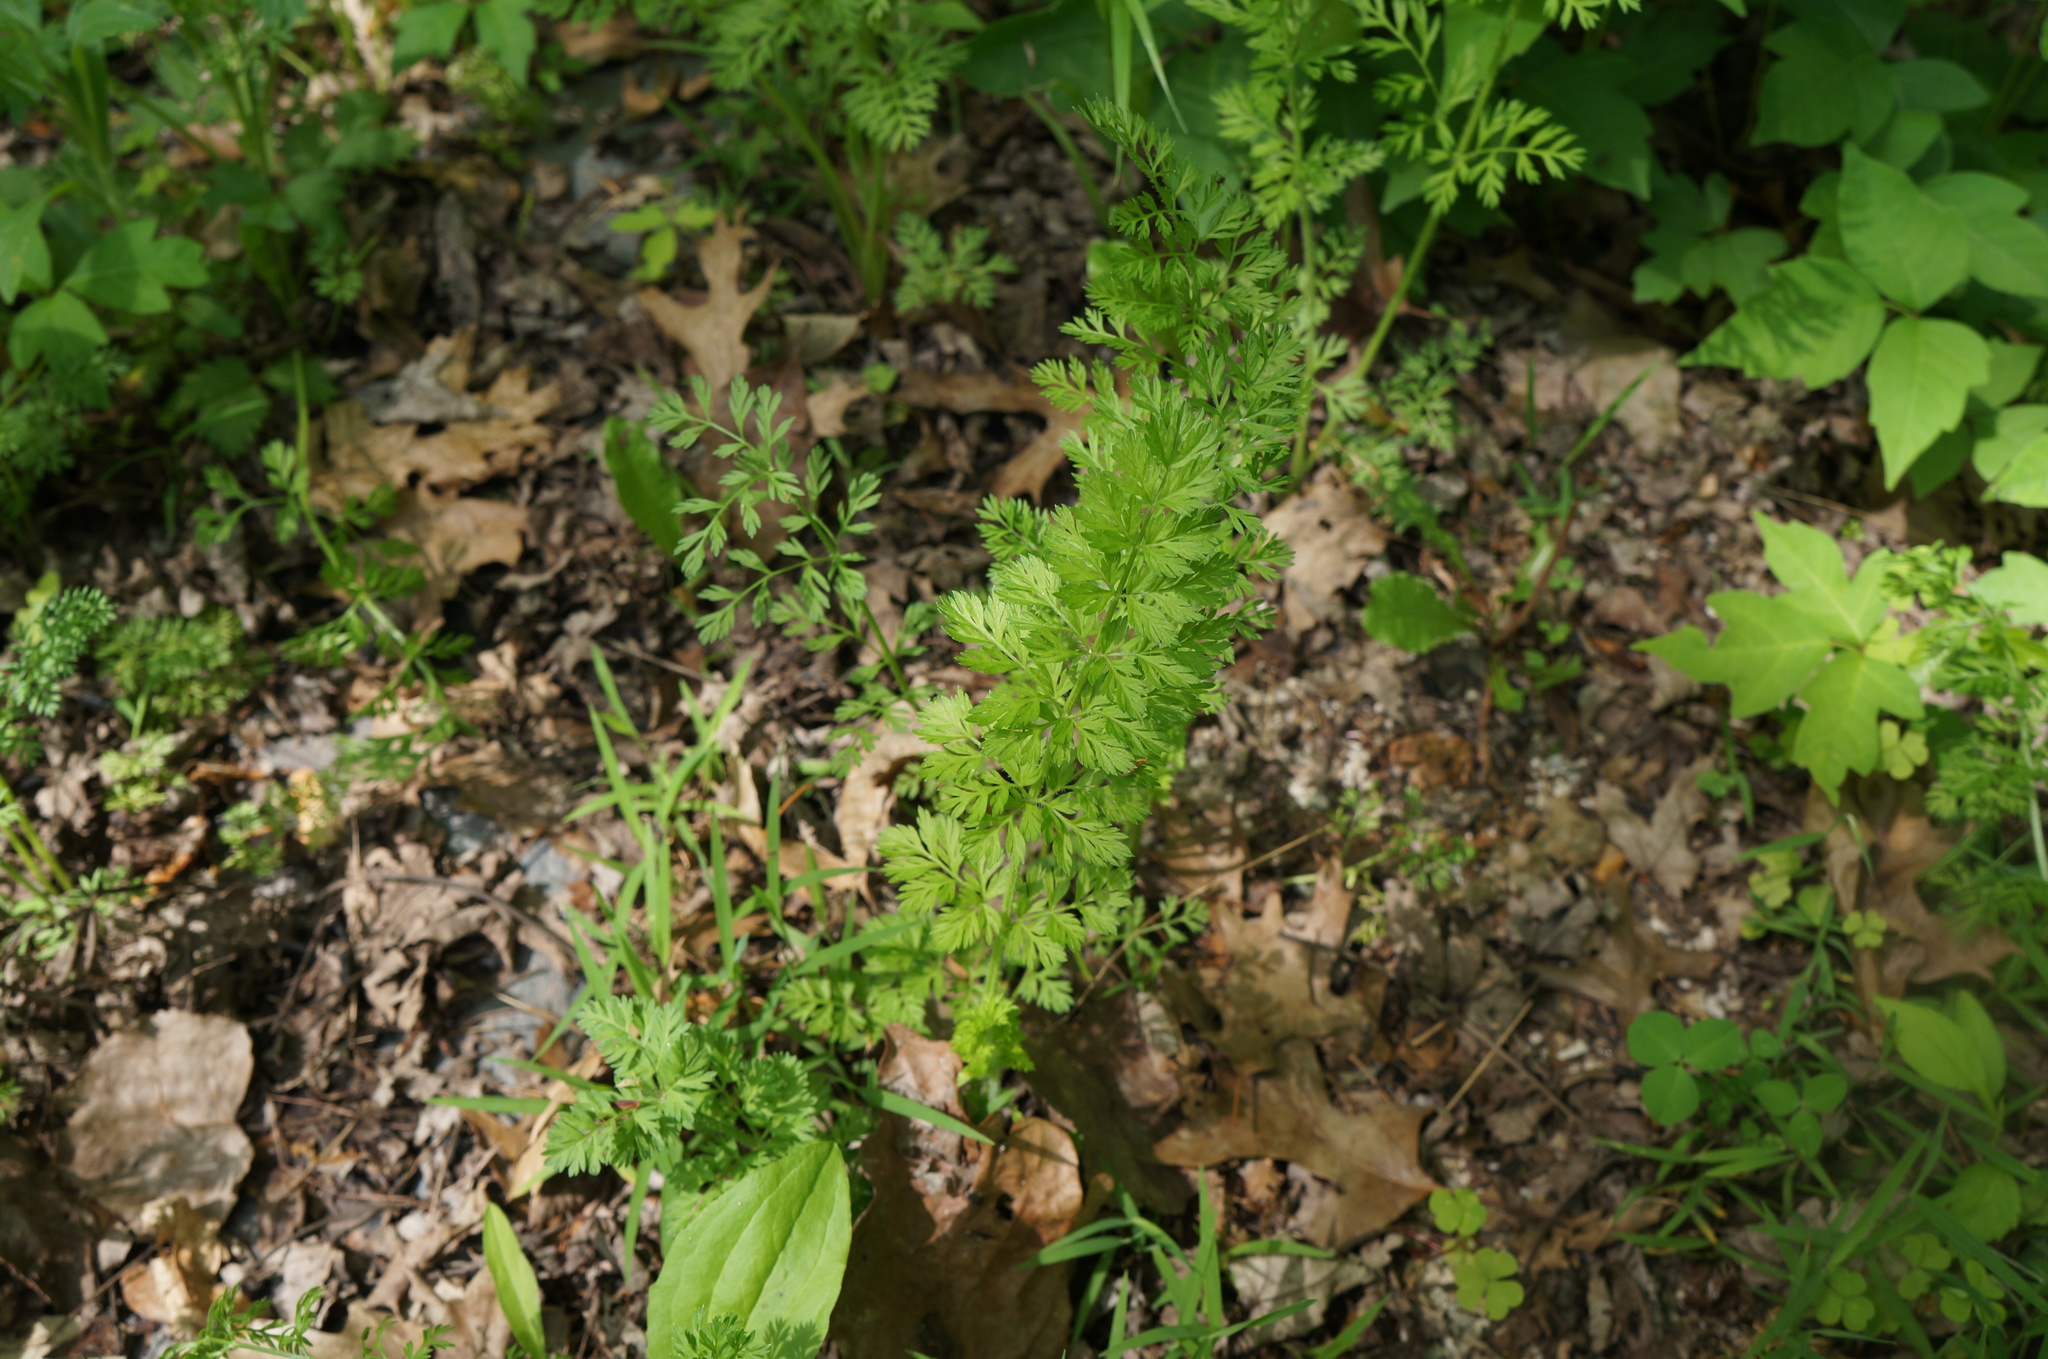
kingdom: Plantae
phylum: Tracheophyta
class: Magnoliopsida
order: Apiales
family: Apiaceae
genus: Daucus
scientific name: Daucus carota
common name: Wild carrot
